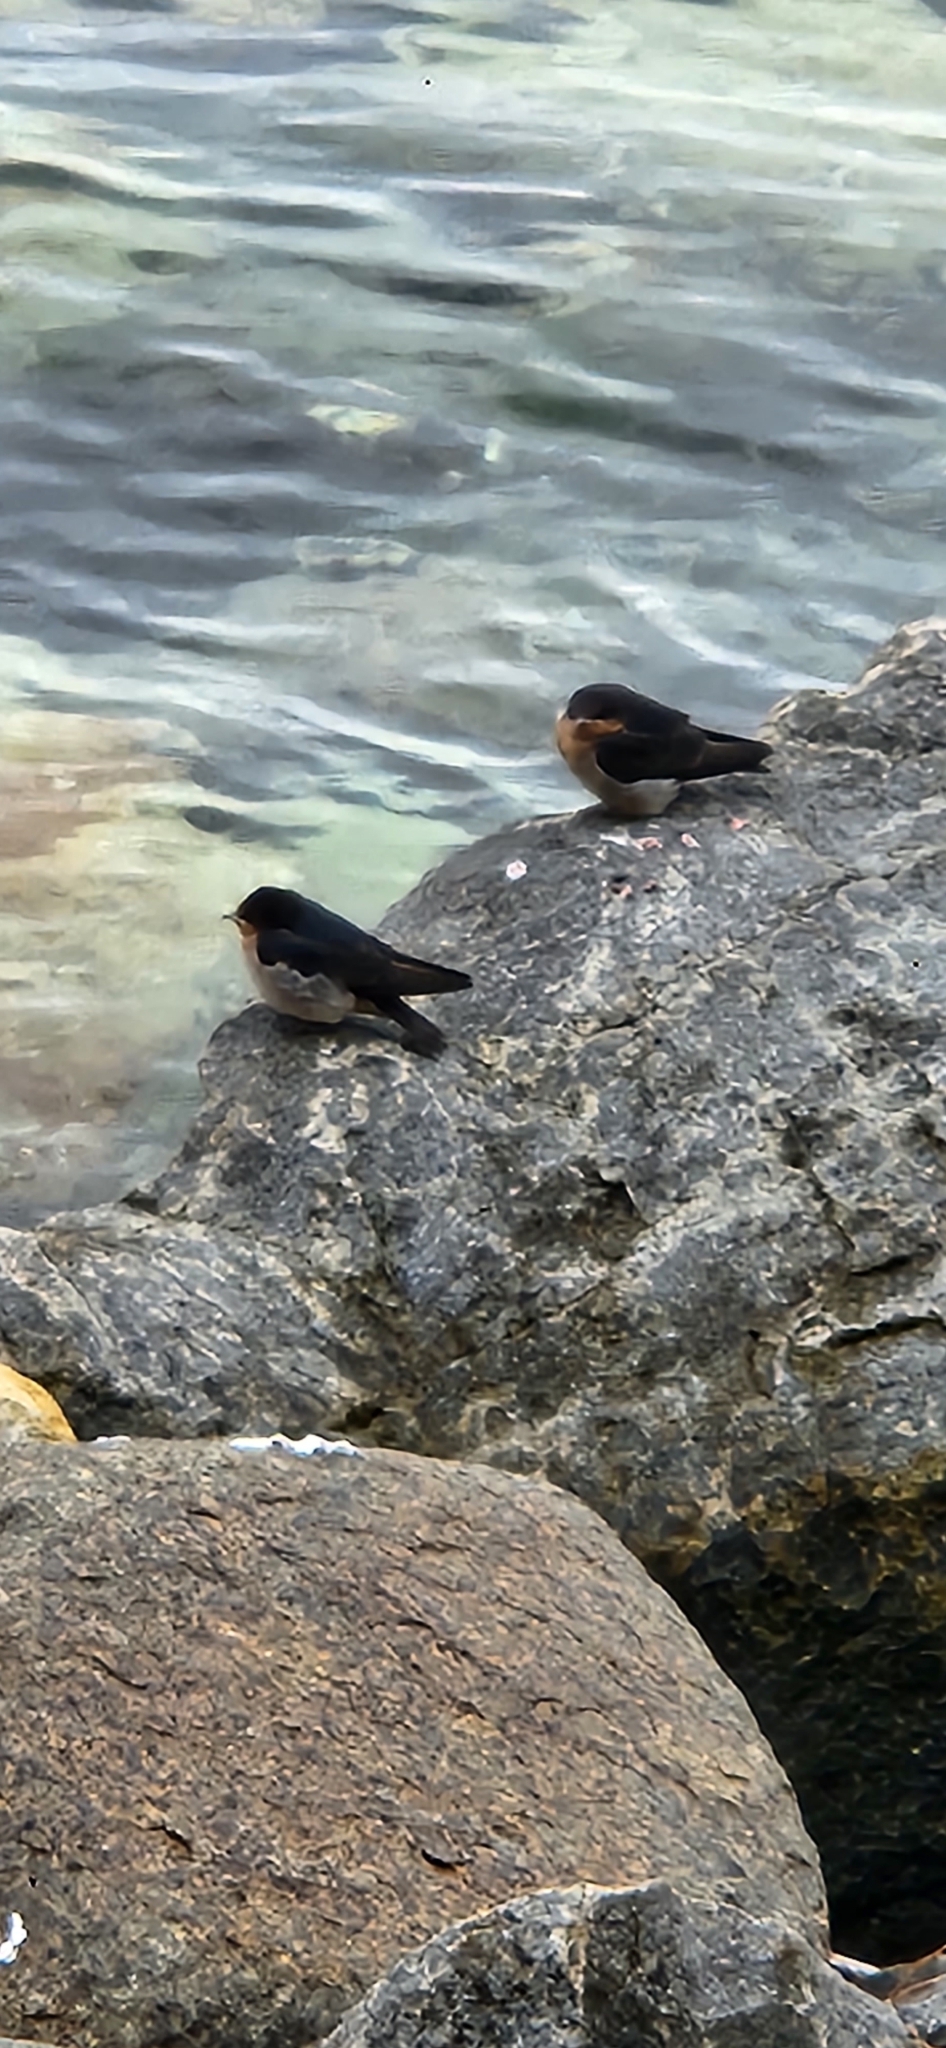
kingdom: Animalia
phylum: Chordata
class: Aves
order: Passeriformes
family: Hirundinidae
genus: Hirundo
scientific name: Hirundo neoxena
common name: Welcome swallow
